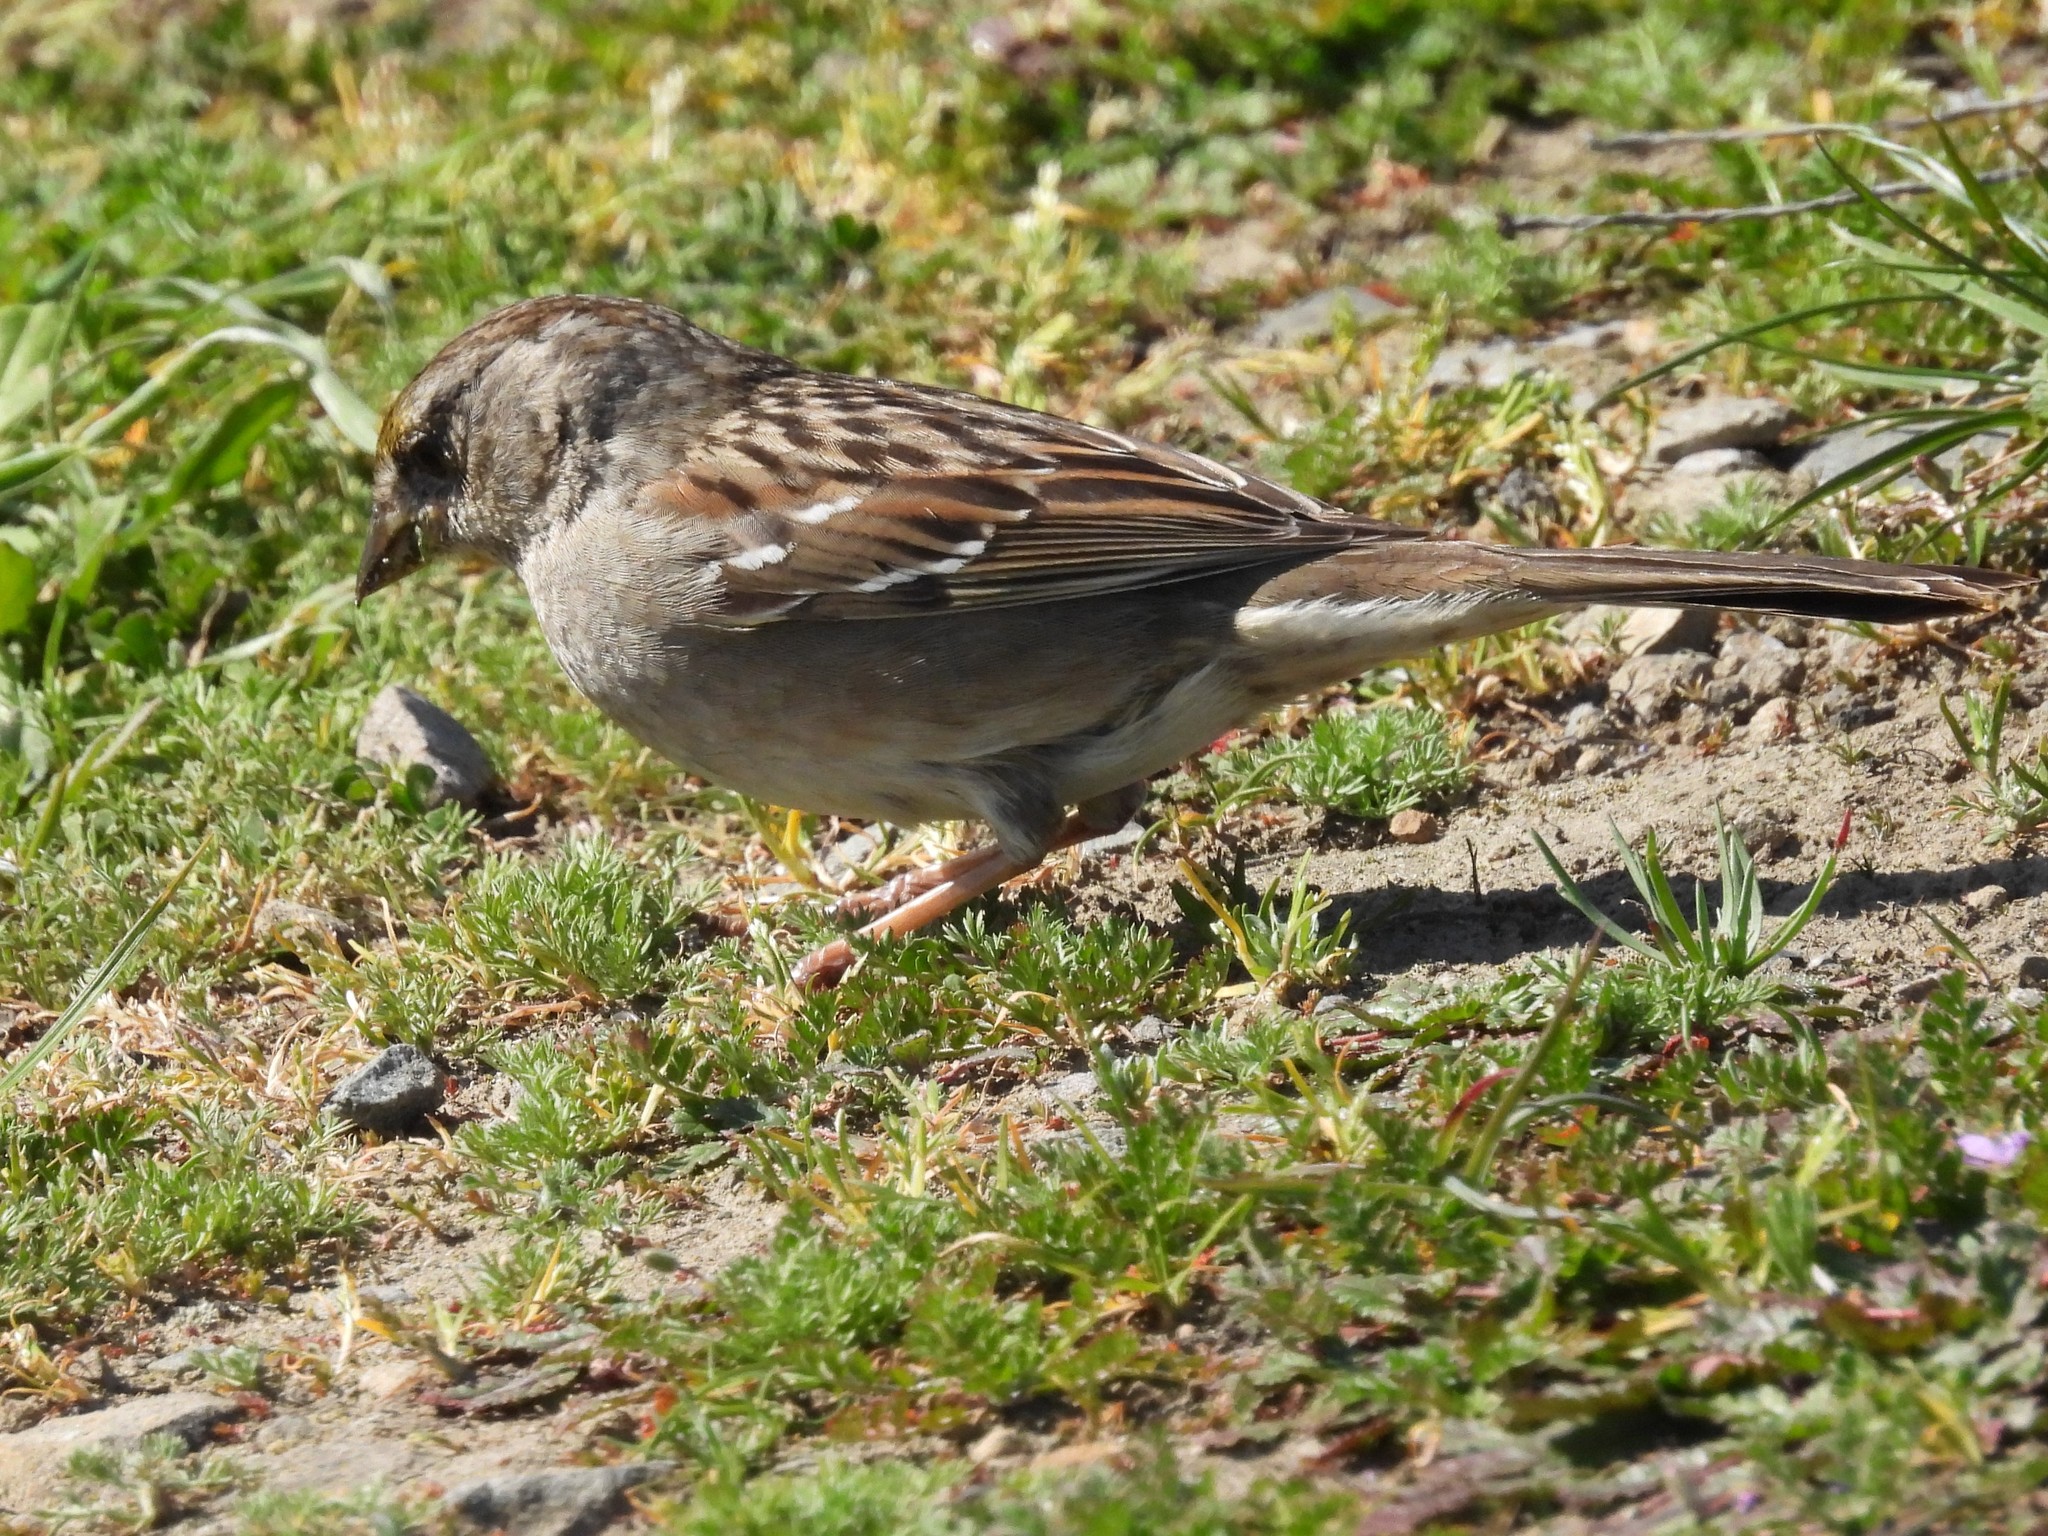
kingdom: Animalia
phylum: Chordata
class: Aves
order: Passeriformes
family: Passerellidae
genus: Zonotrichia
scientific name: Zonotrichia atricapilla
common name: Golden-crowned sparrow
